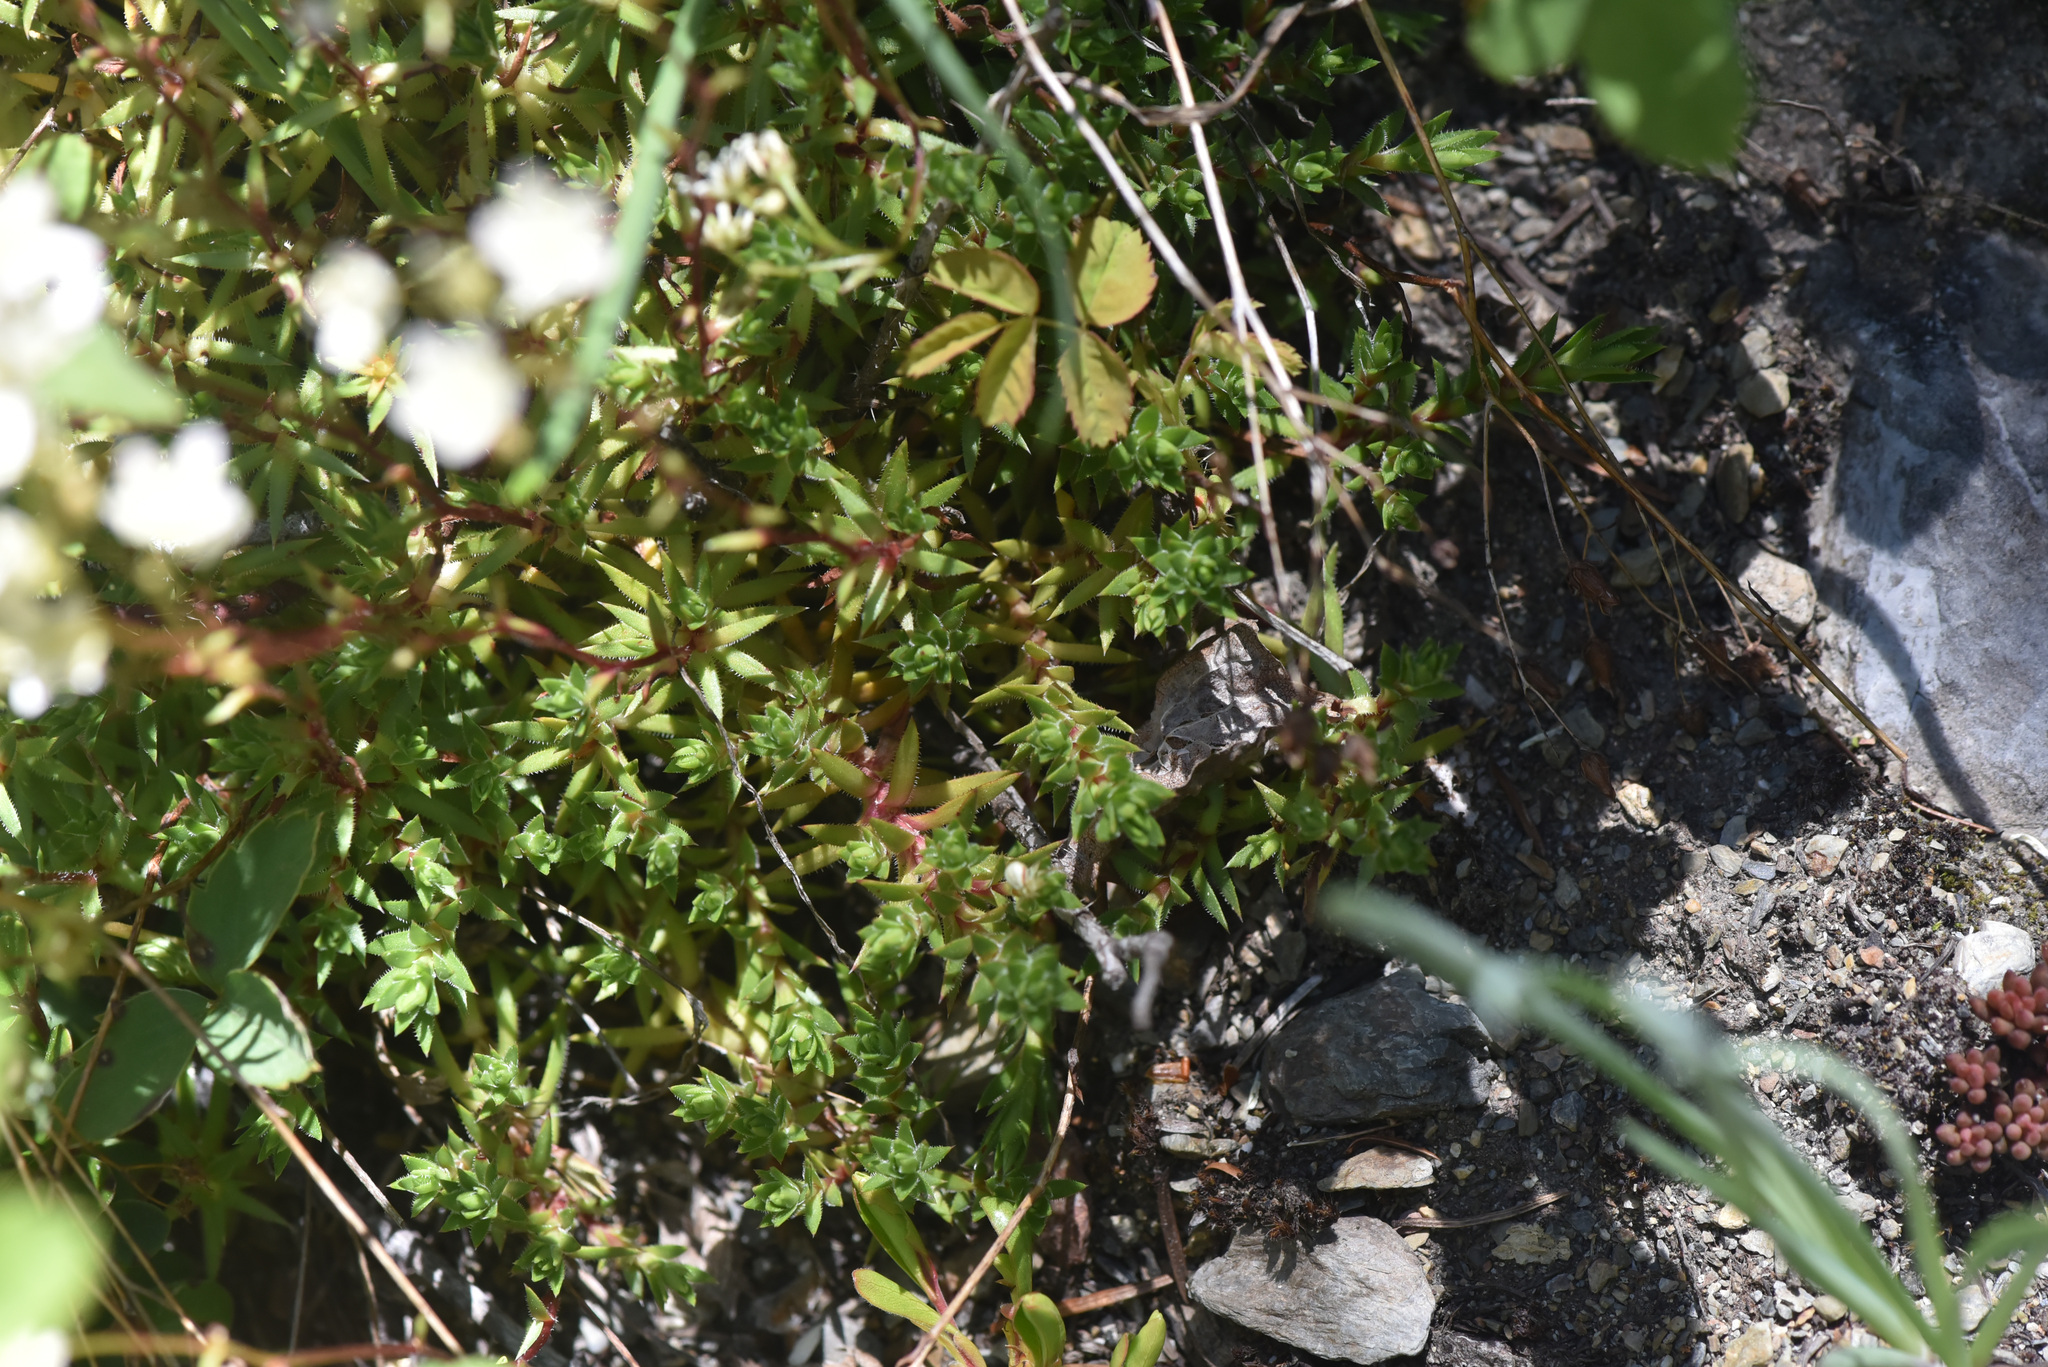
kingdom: Plantae
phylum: Tracheophyta
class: Magnoliopsida
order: Saxifragales
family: Saxifragaceae
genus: Saxifraga
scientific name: Saxifraga bronchialis
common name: Matted saxifrage
